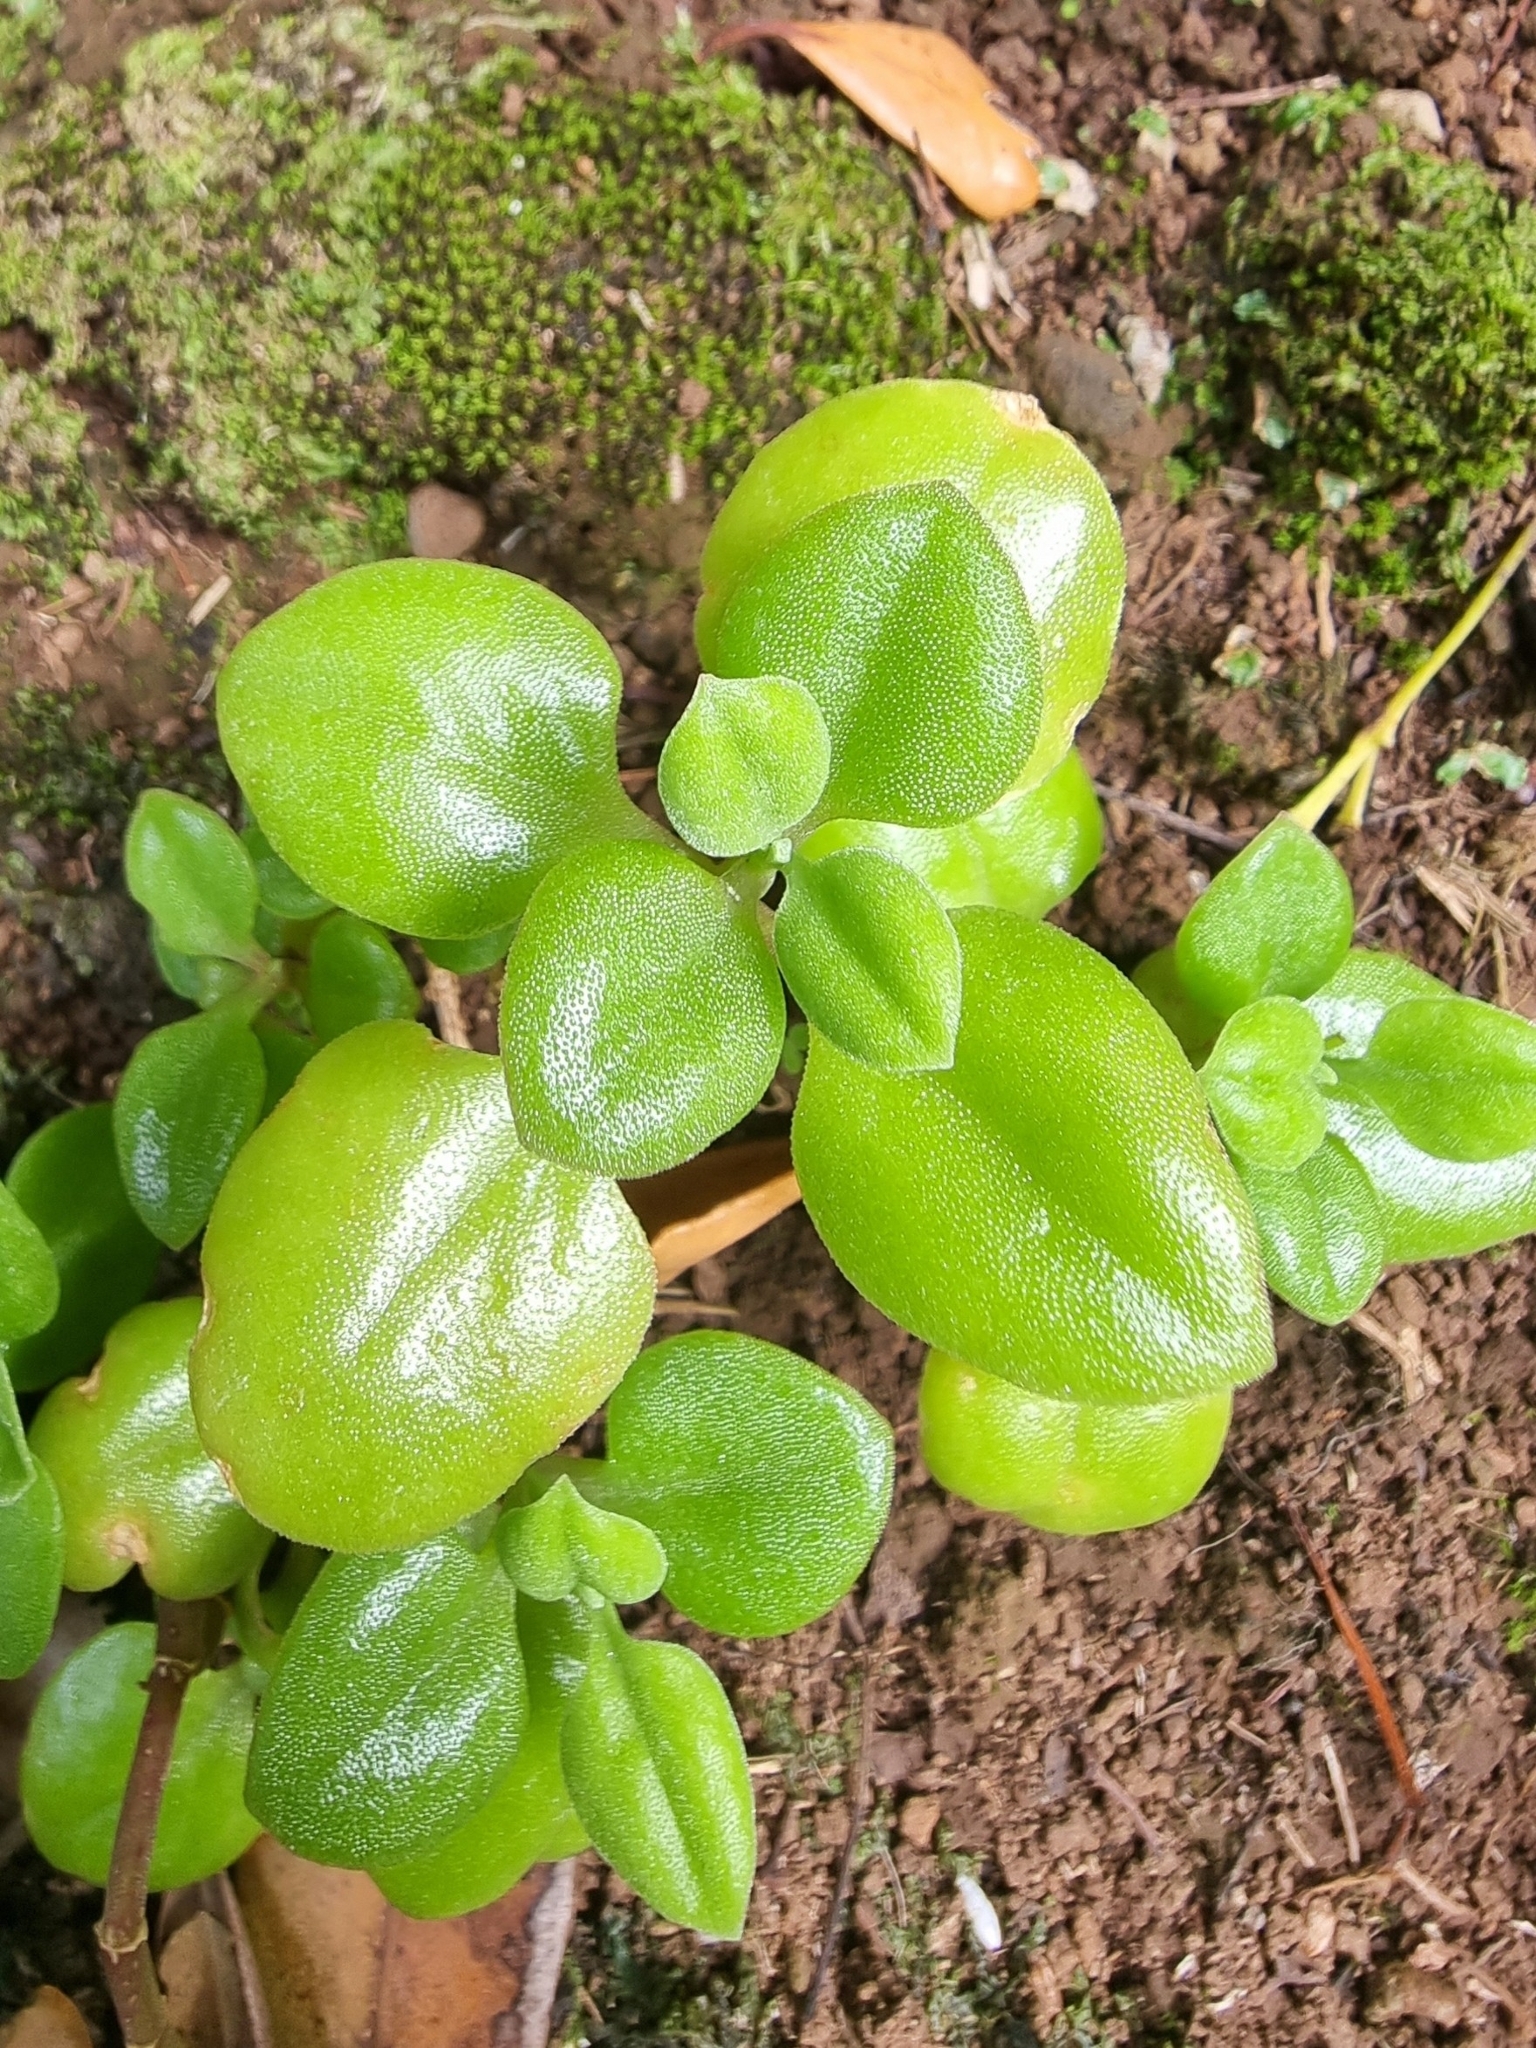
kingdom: Plantae
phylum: Tracheophyta
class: Magnoliopsida
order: Caryophyllales
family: Aizoaceae
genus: Mesembryanthemum
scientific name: Mesembryanthemum cordifolium
